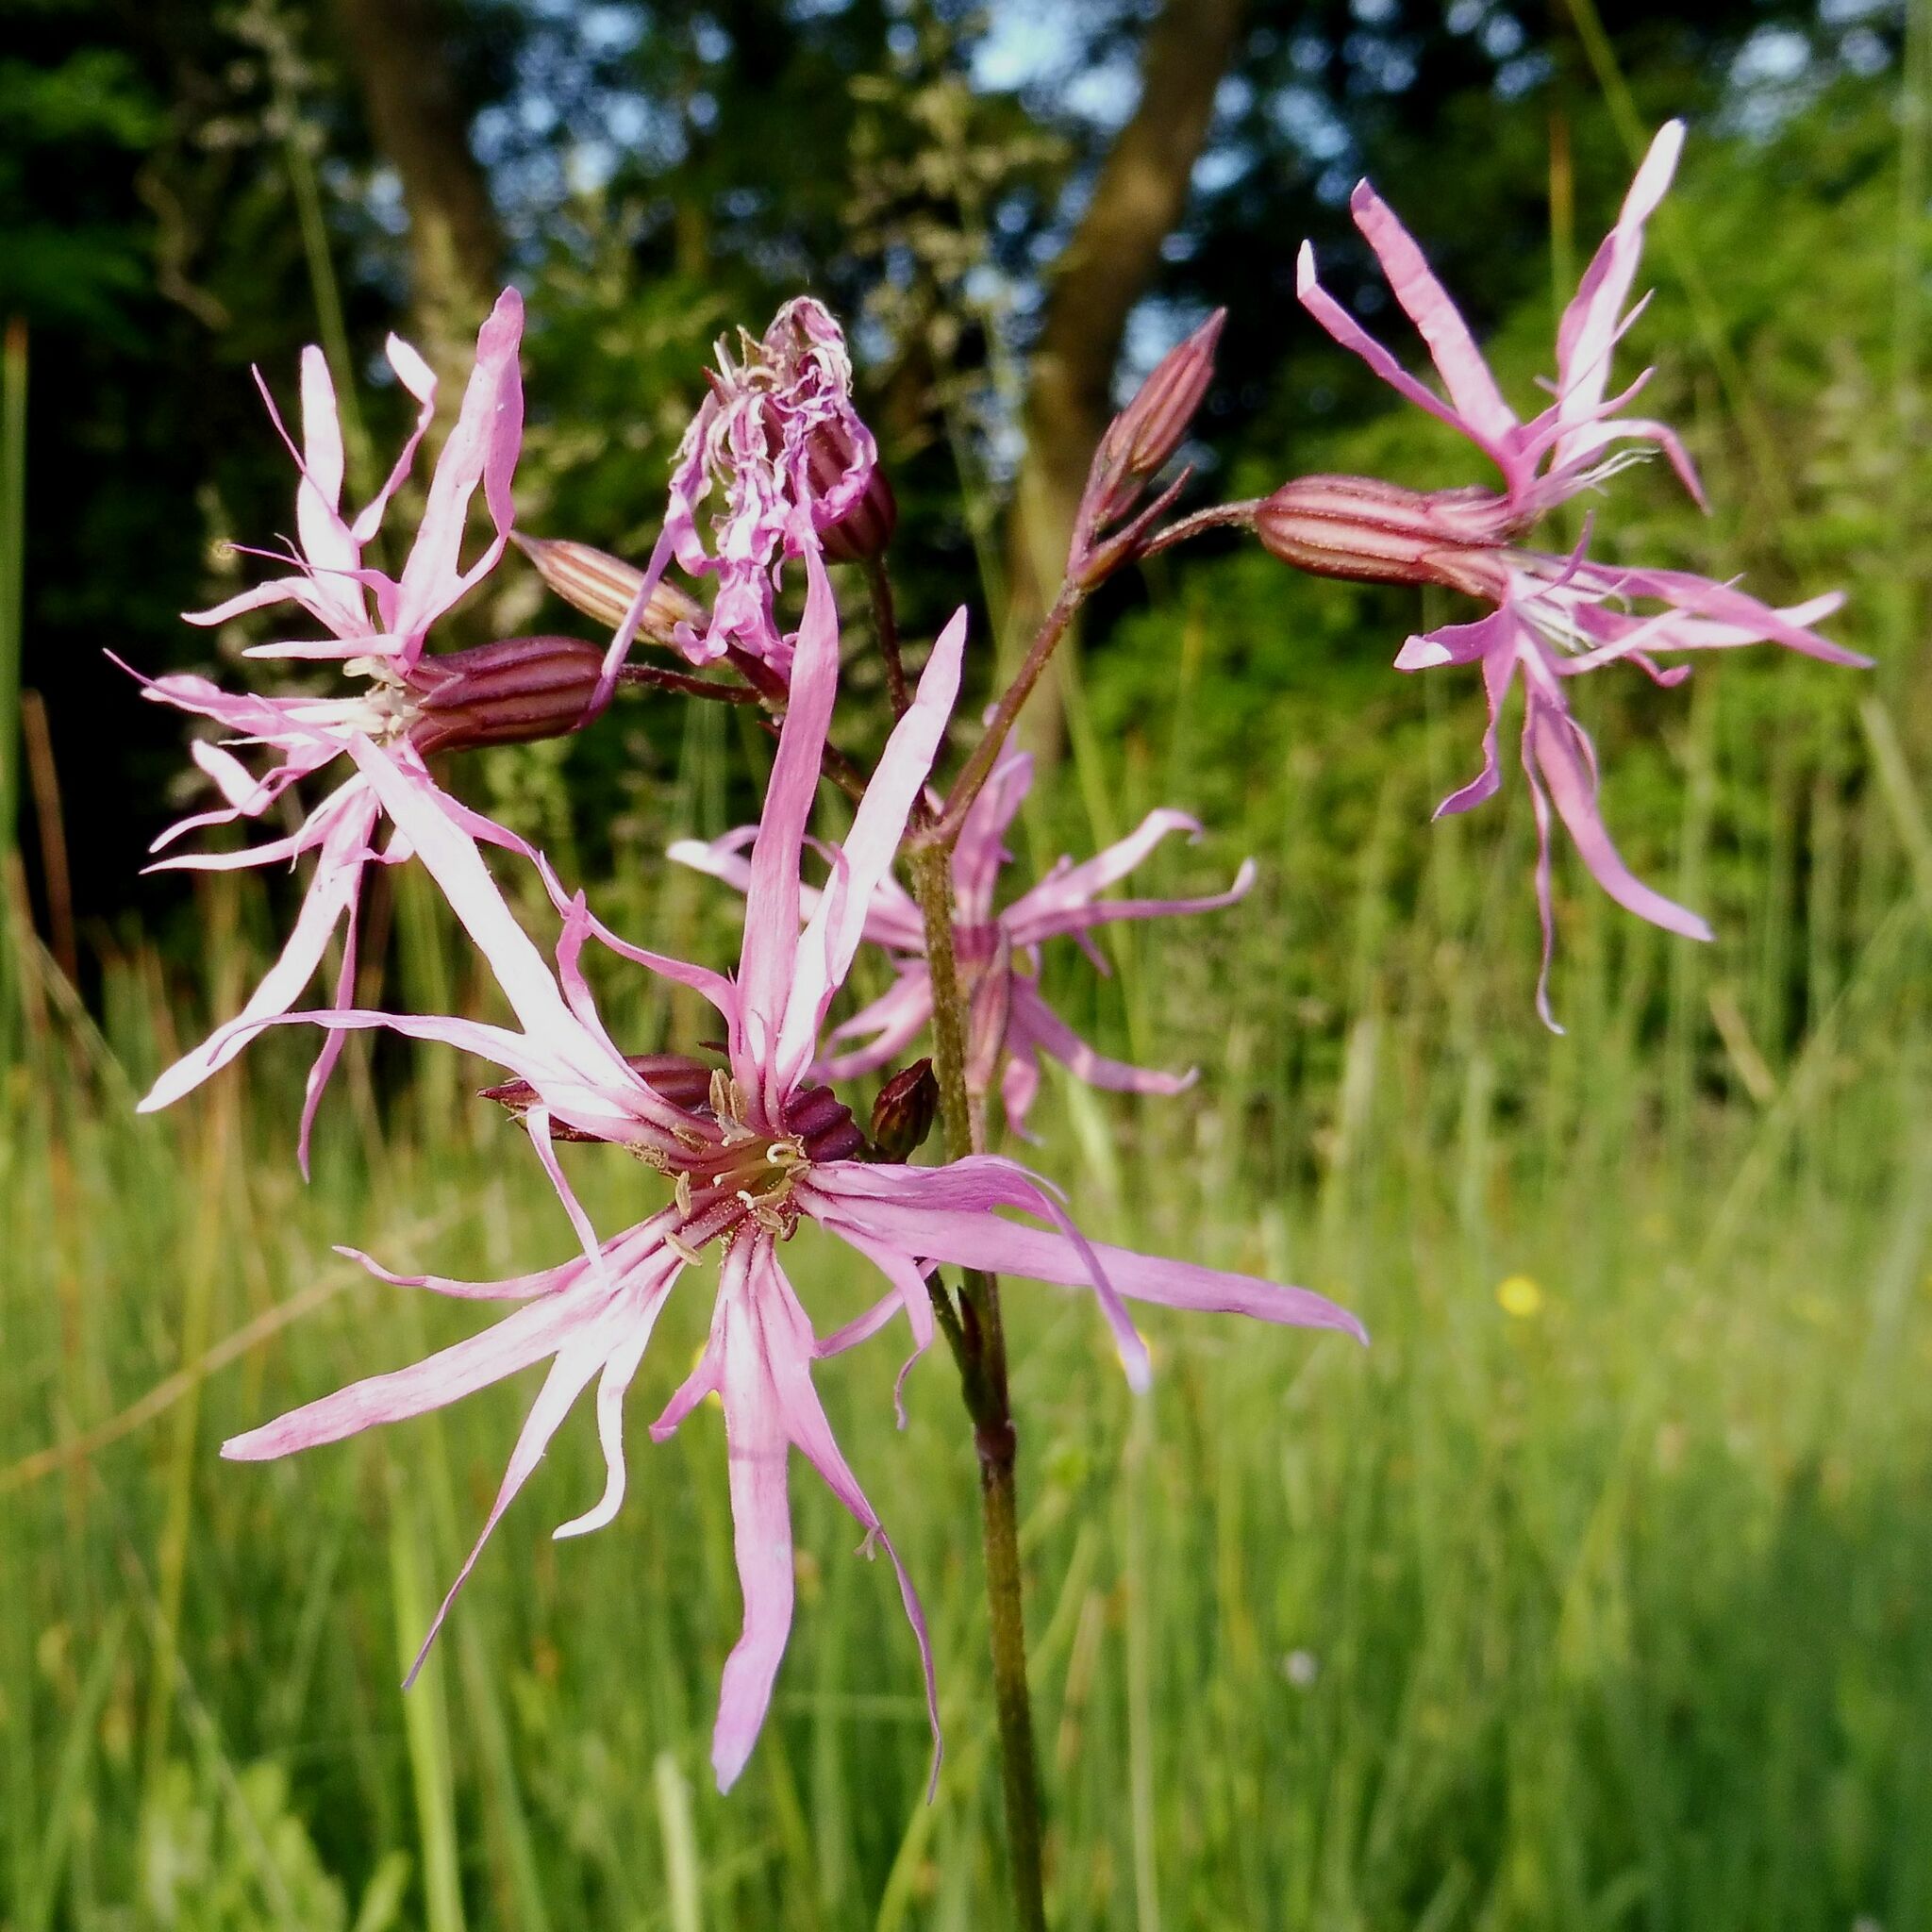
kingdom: Plantae
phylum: Tracheophyta
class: Magnoliopsida
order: Caryophyllales
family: Caryophyllaceae
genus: Silene
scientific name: Silene flos-cuculi
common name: Ragged-robin
